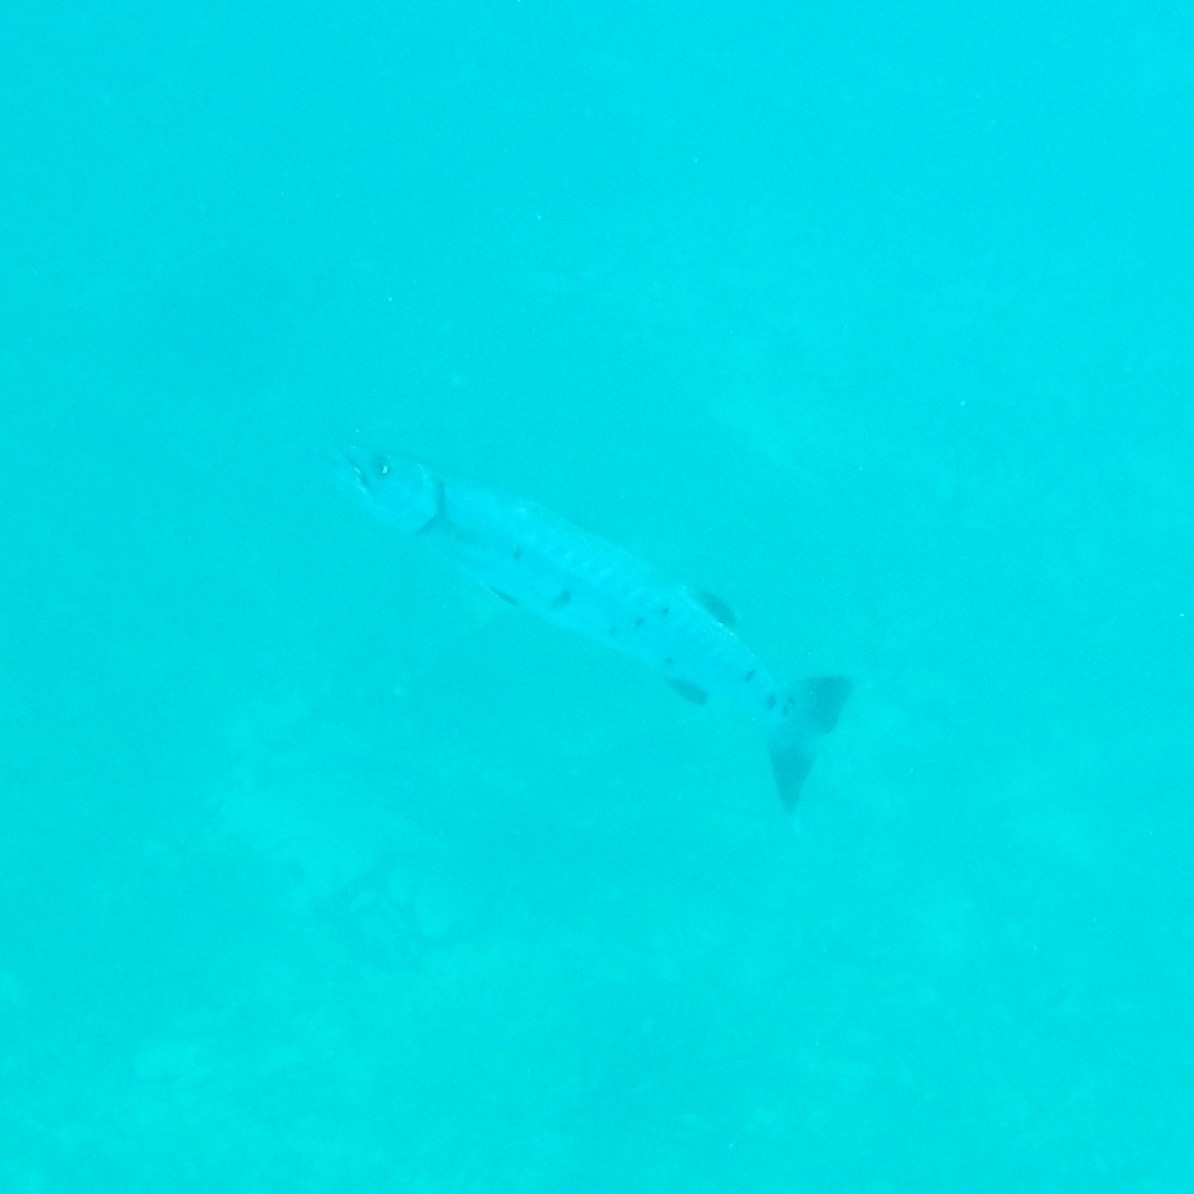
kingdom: Animalia
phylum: Chordata
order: Perciformes
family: Sphyraenidae
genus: Sphyraena
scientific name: Sphyraena barracuda
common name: Great barracuda
